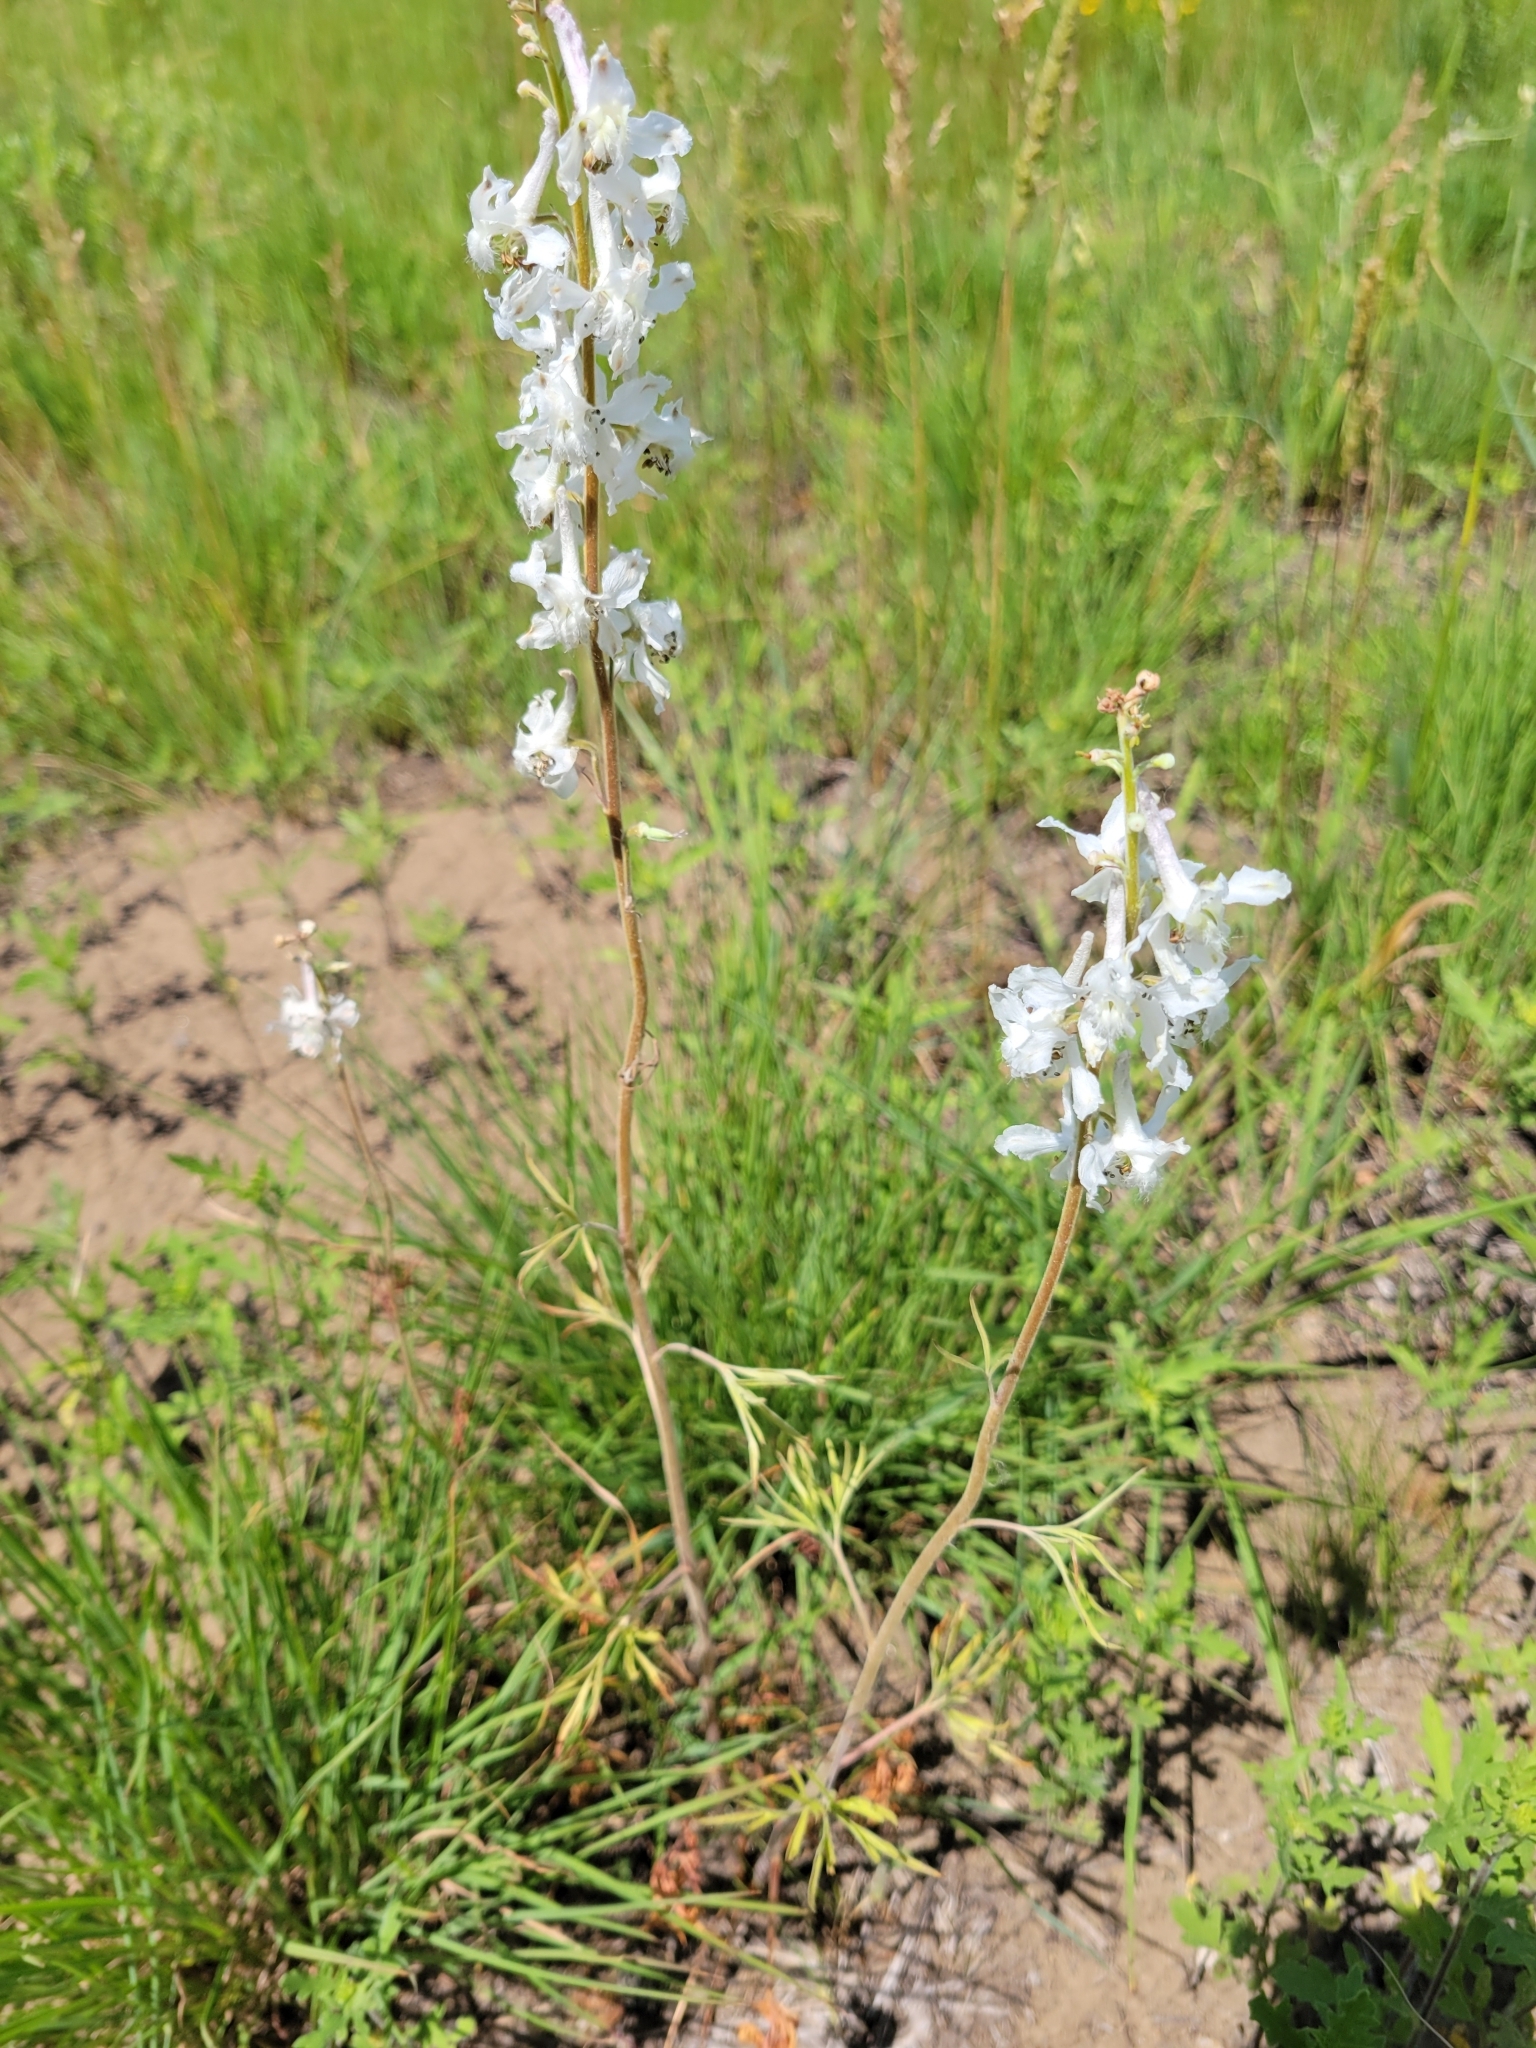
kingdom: Plantae
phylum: Tracheophyta
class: Magnoliopsida
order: Ranunculales
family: Ranunculaceae
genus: Delphinium
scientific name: Delphinium carolinianum
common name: Carolina larkspur
